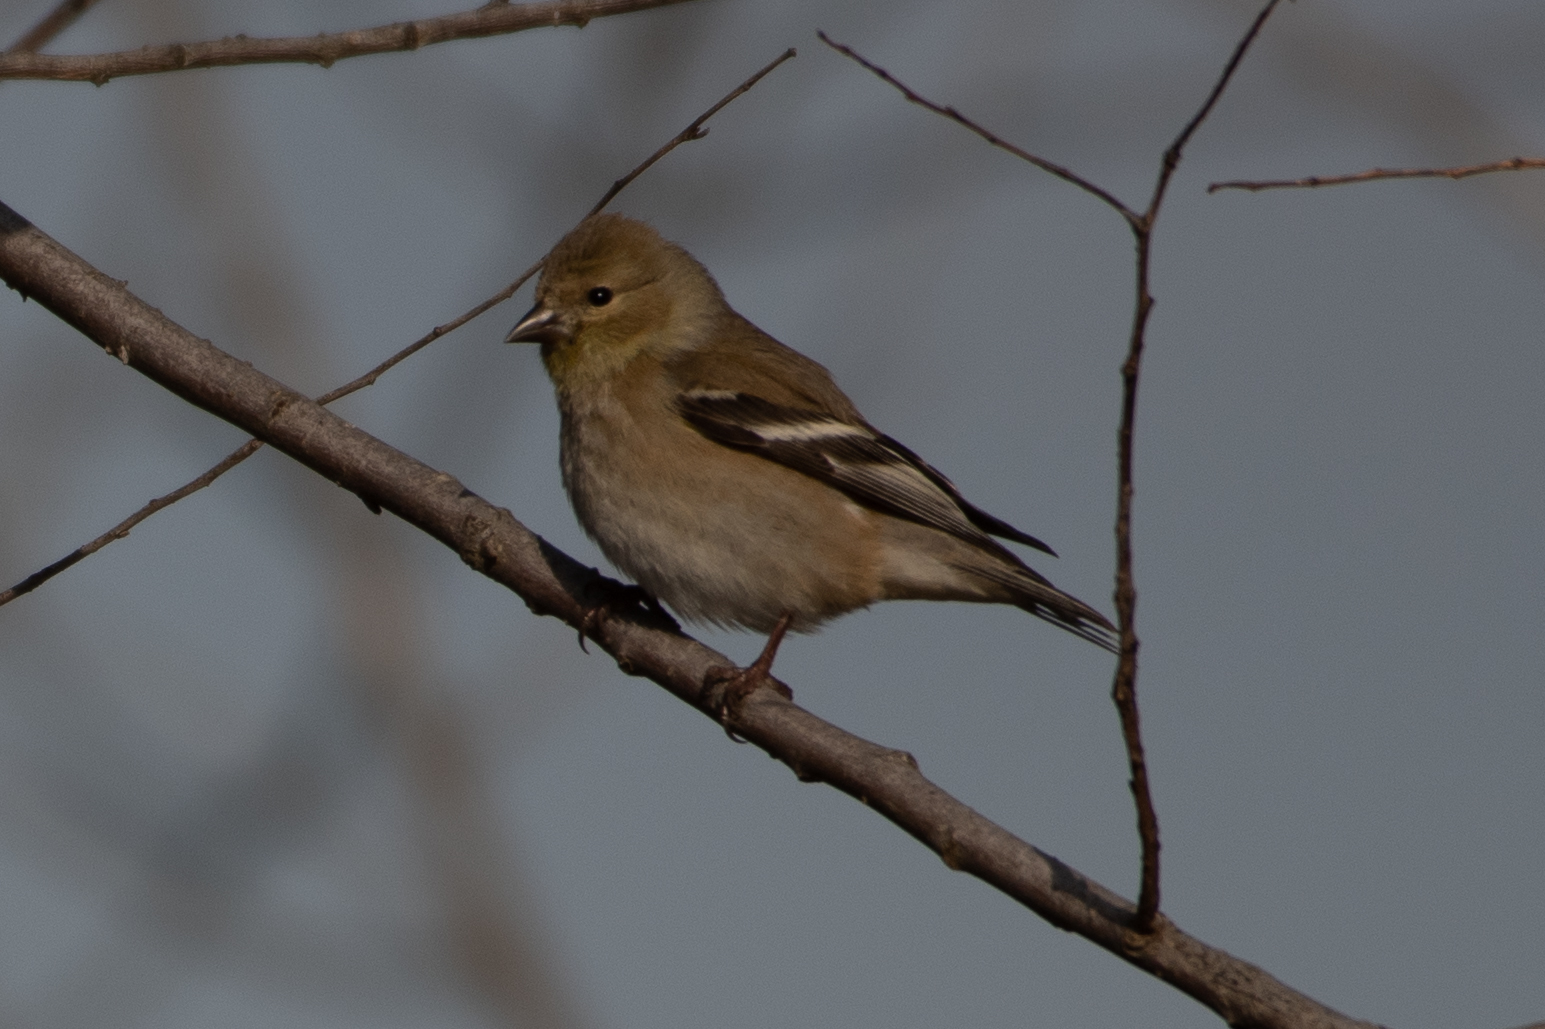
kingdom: Animalia
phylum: Chordata
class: Aves
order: Passeriformes
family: Fringillidae
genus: Spinus
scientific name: Spinus tristis
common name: American goldfinch
